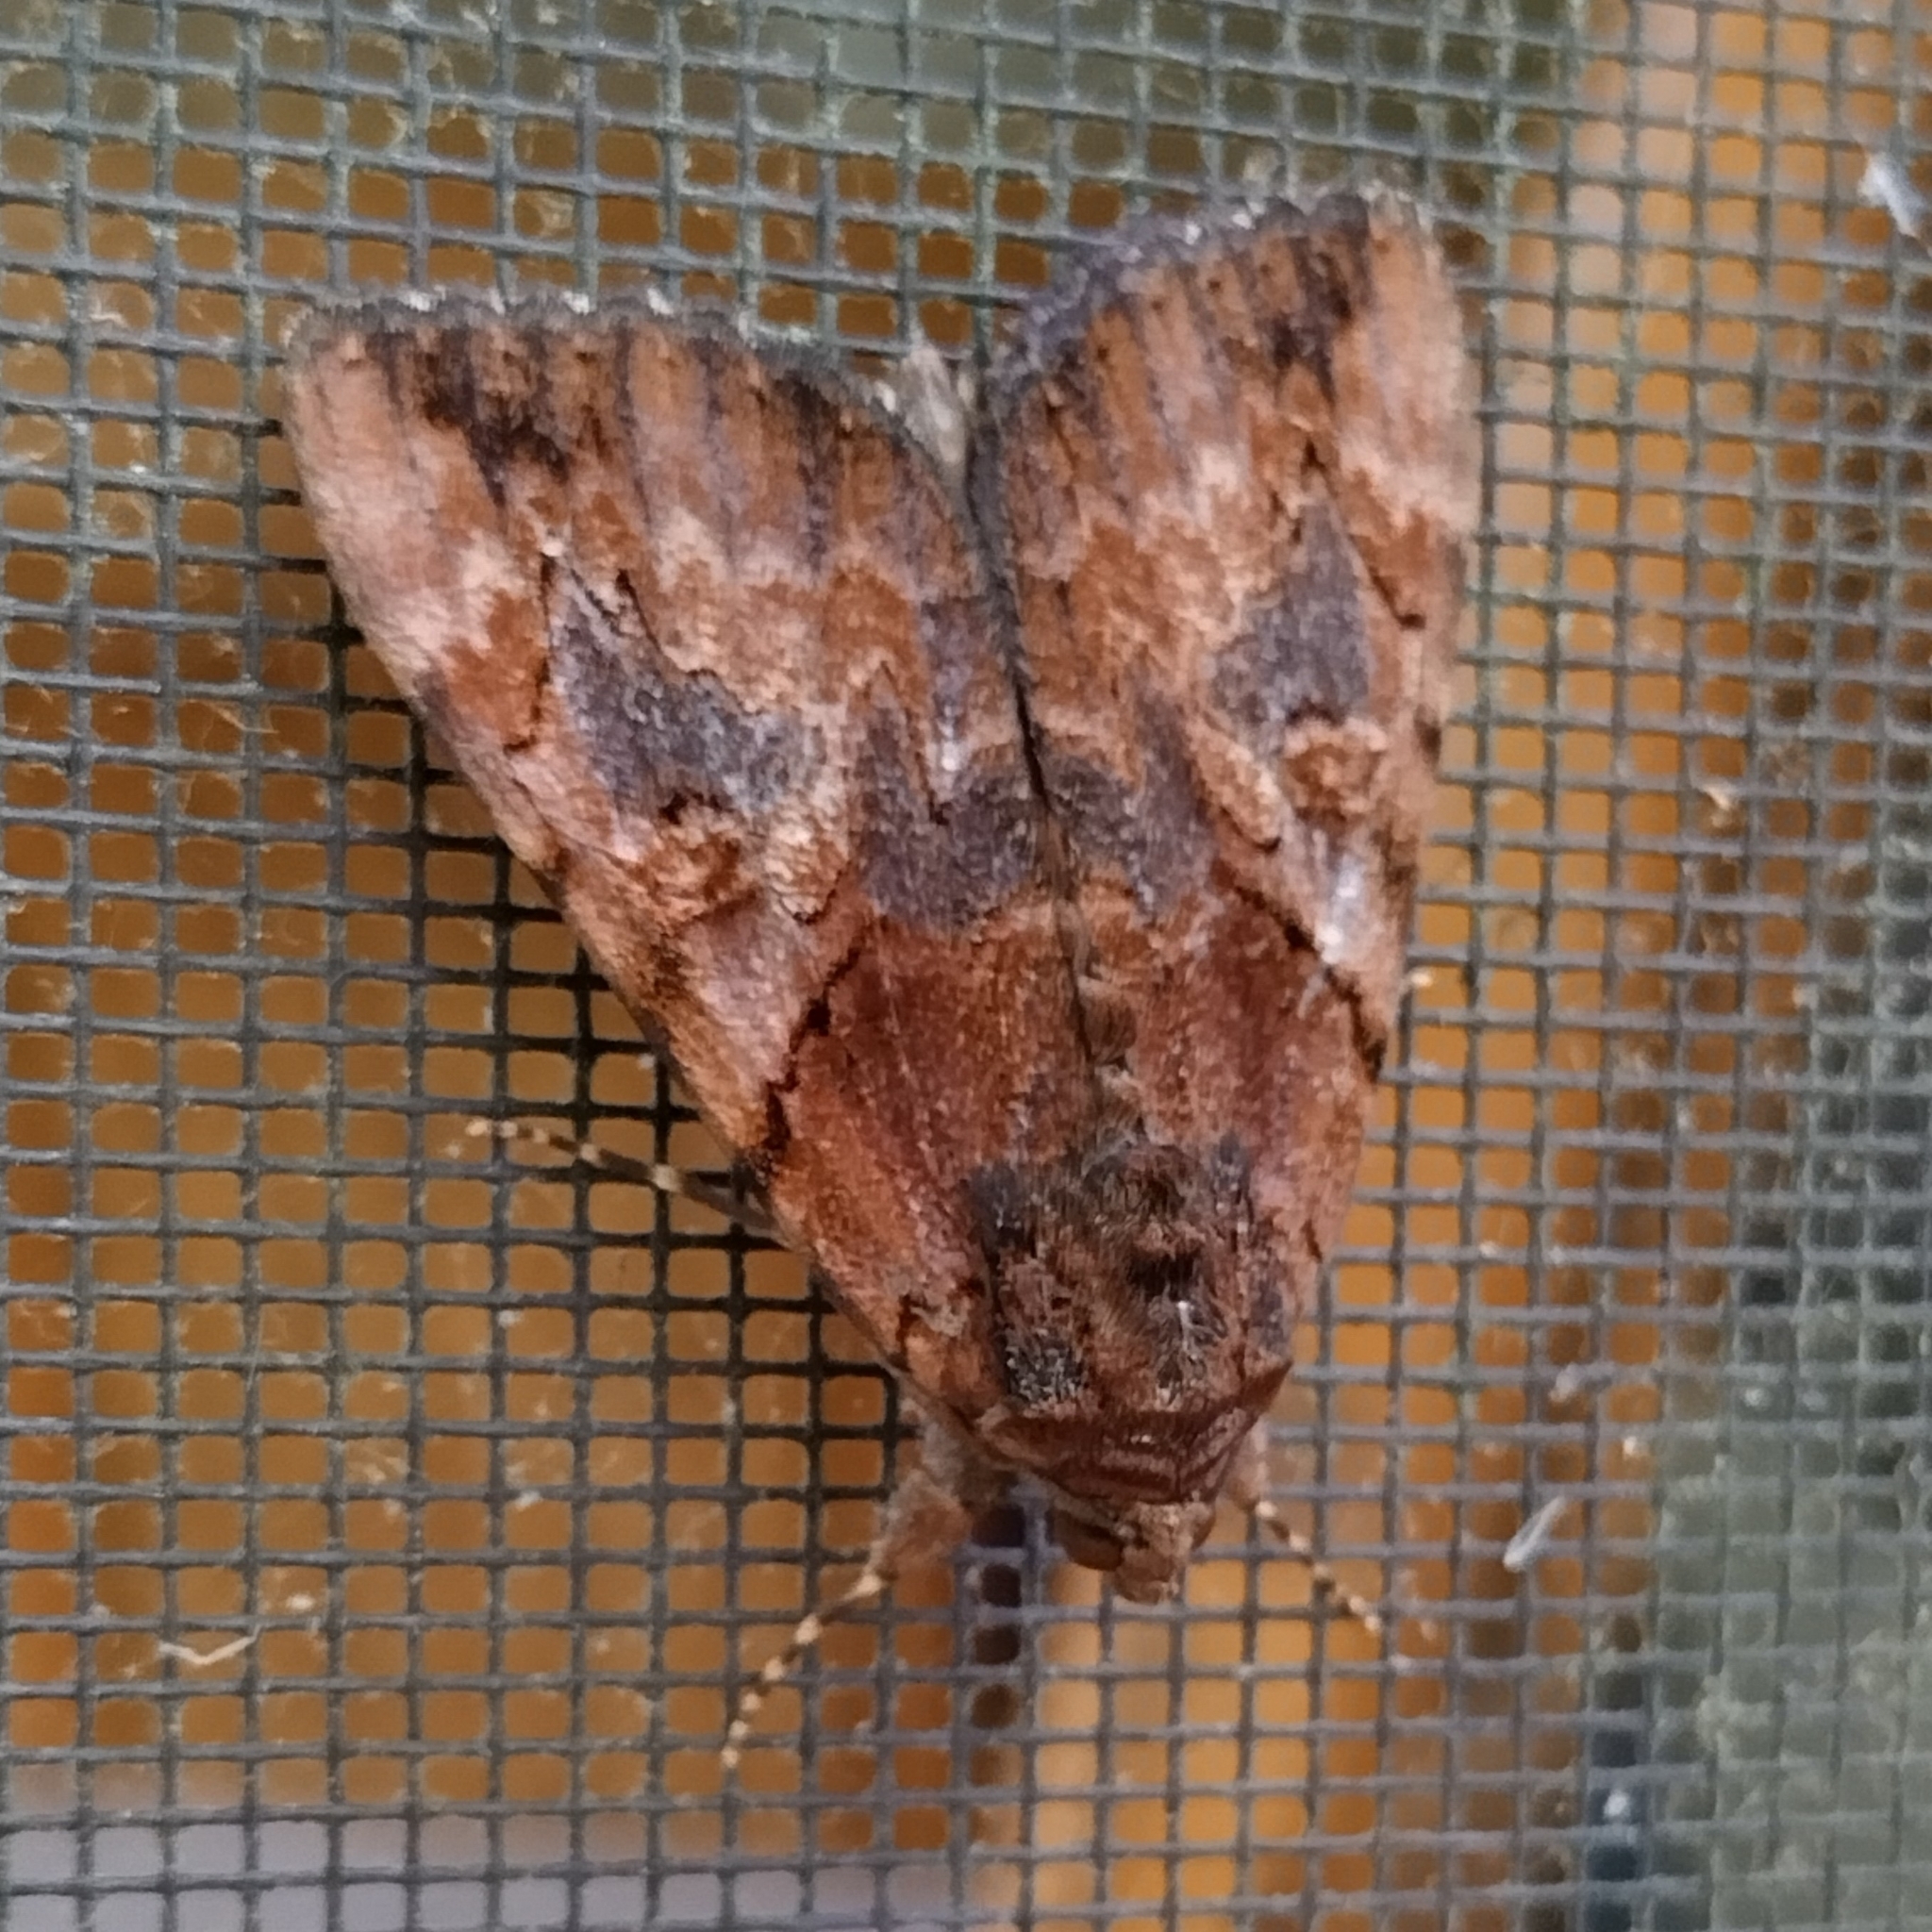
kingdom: Animalia
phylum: Arthropoda
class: Insecta
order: Lepidoptera
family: Erebidae
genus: Catocala
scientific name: Catocala muliercula
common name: The little wife underwing
